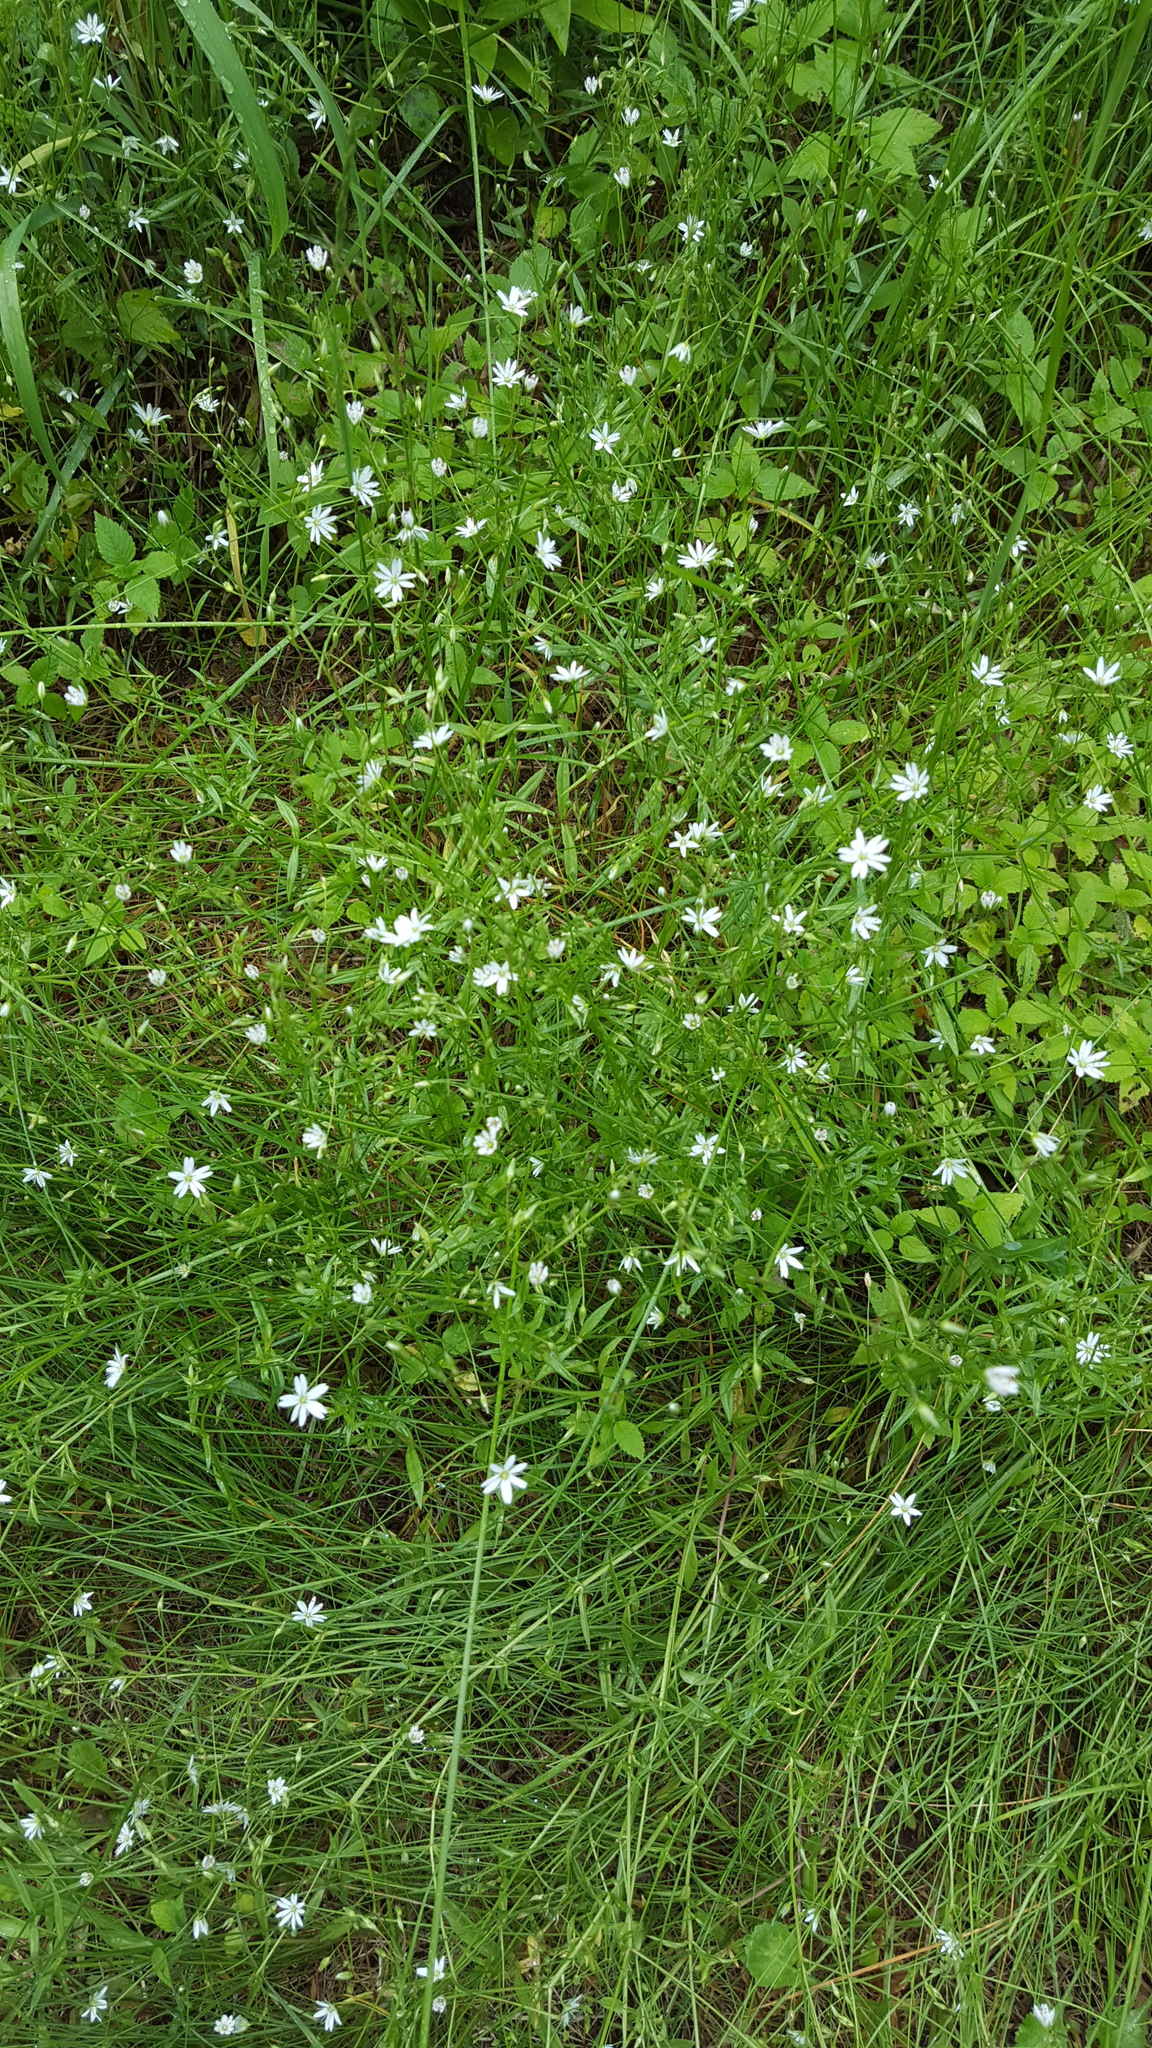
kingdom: Plantae
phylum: Tracheophyta
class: Magnoliopsida
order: Caryophyllales
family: Caryophyllaceae
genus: Stellaria
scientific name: Stellaria graminea
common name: Grass-like starwort
